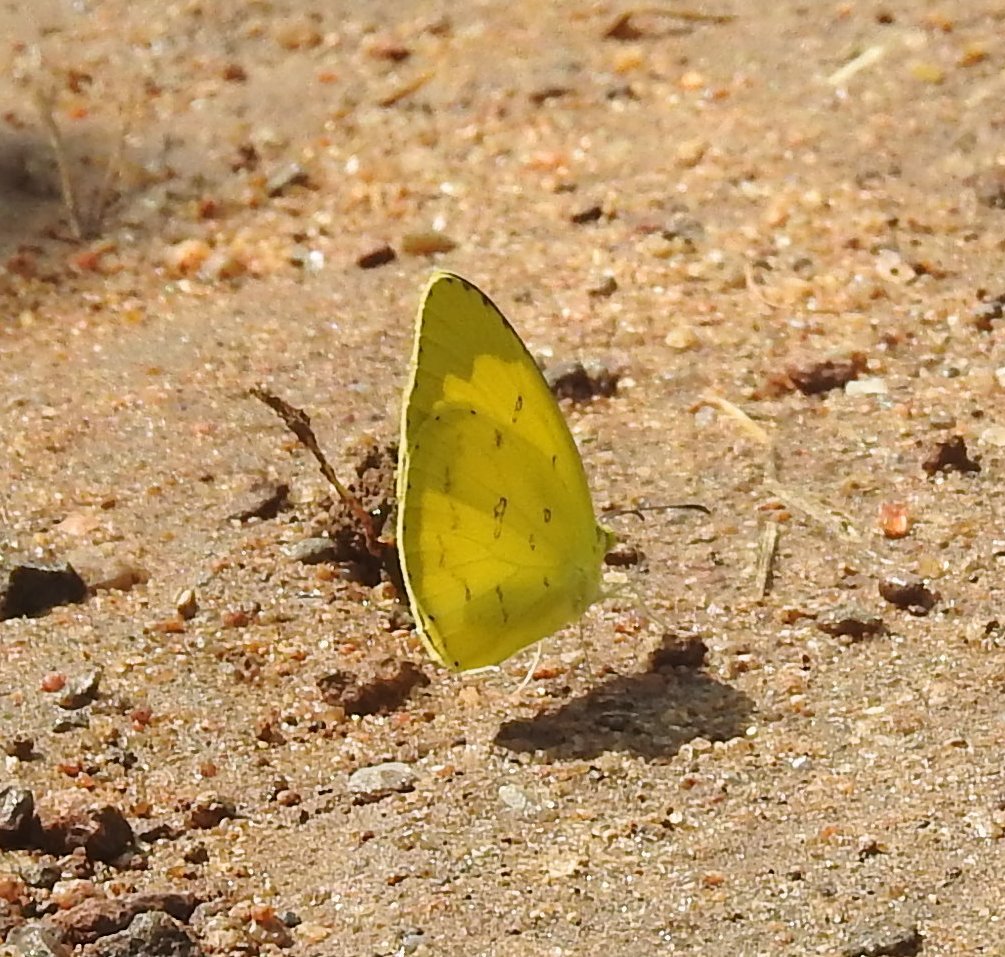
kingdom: Animalia
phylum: Arthropoda
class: Insecta
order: Lepidoptera
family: Pieridae
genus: Eurema
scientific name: Eurema hecabe
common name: Pale grass yellow
